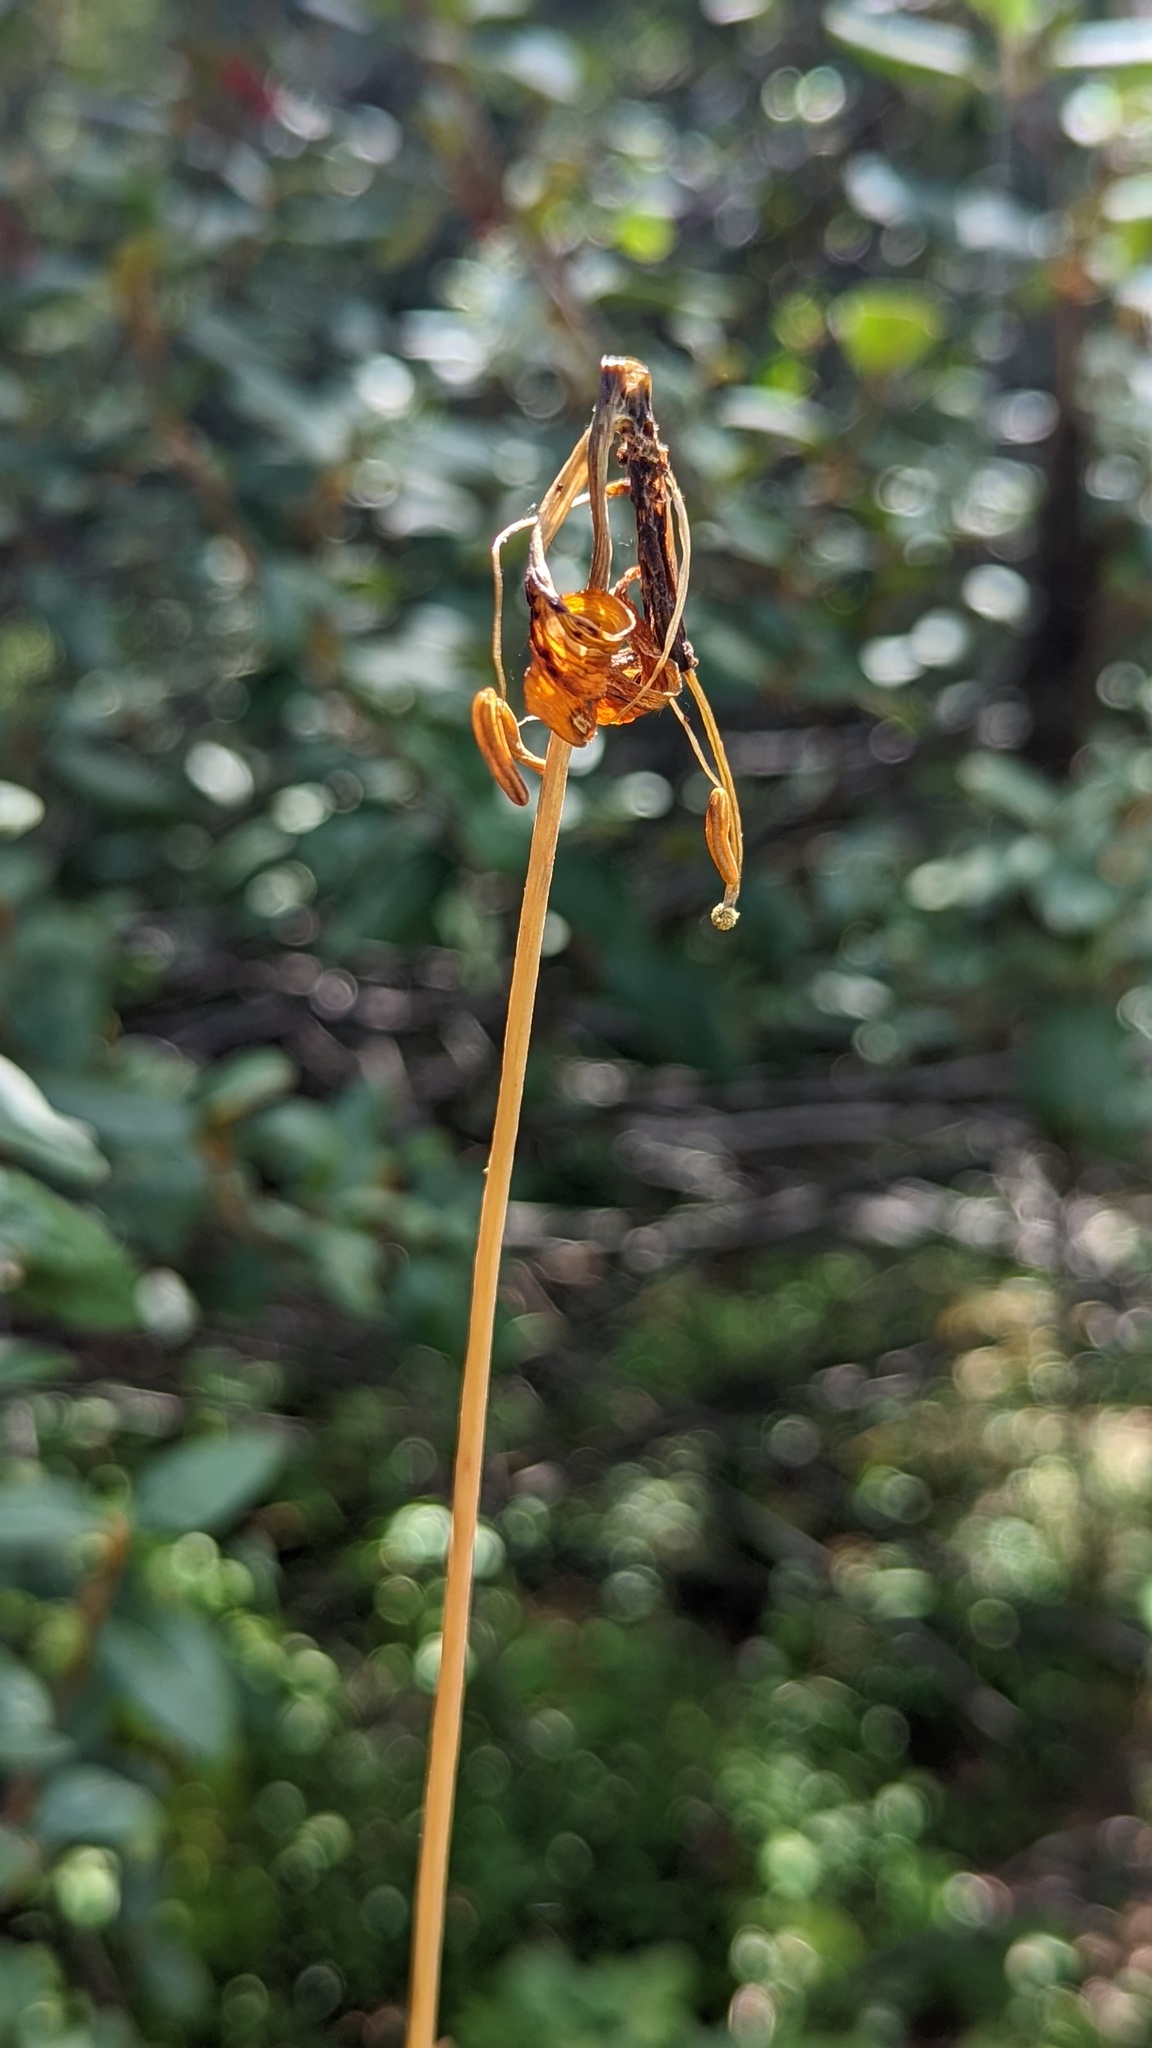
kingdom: Plantae
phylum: Tracheophyta
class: Liliopsida
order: Liliales
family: Liliaceae
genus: Lilium
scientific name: Lilium columbianum
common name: Columbia lily
